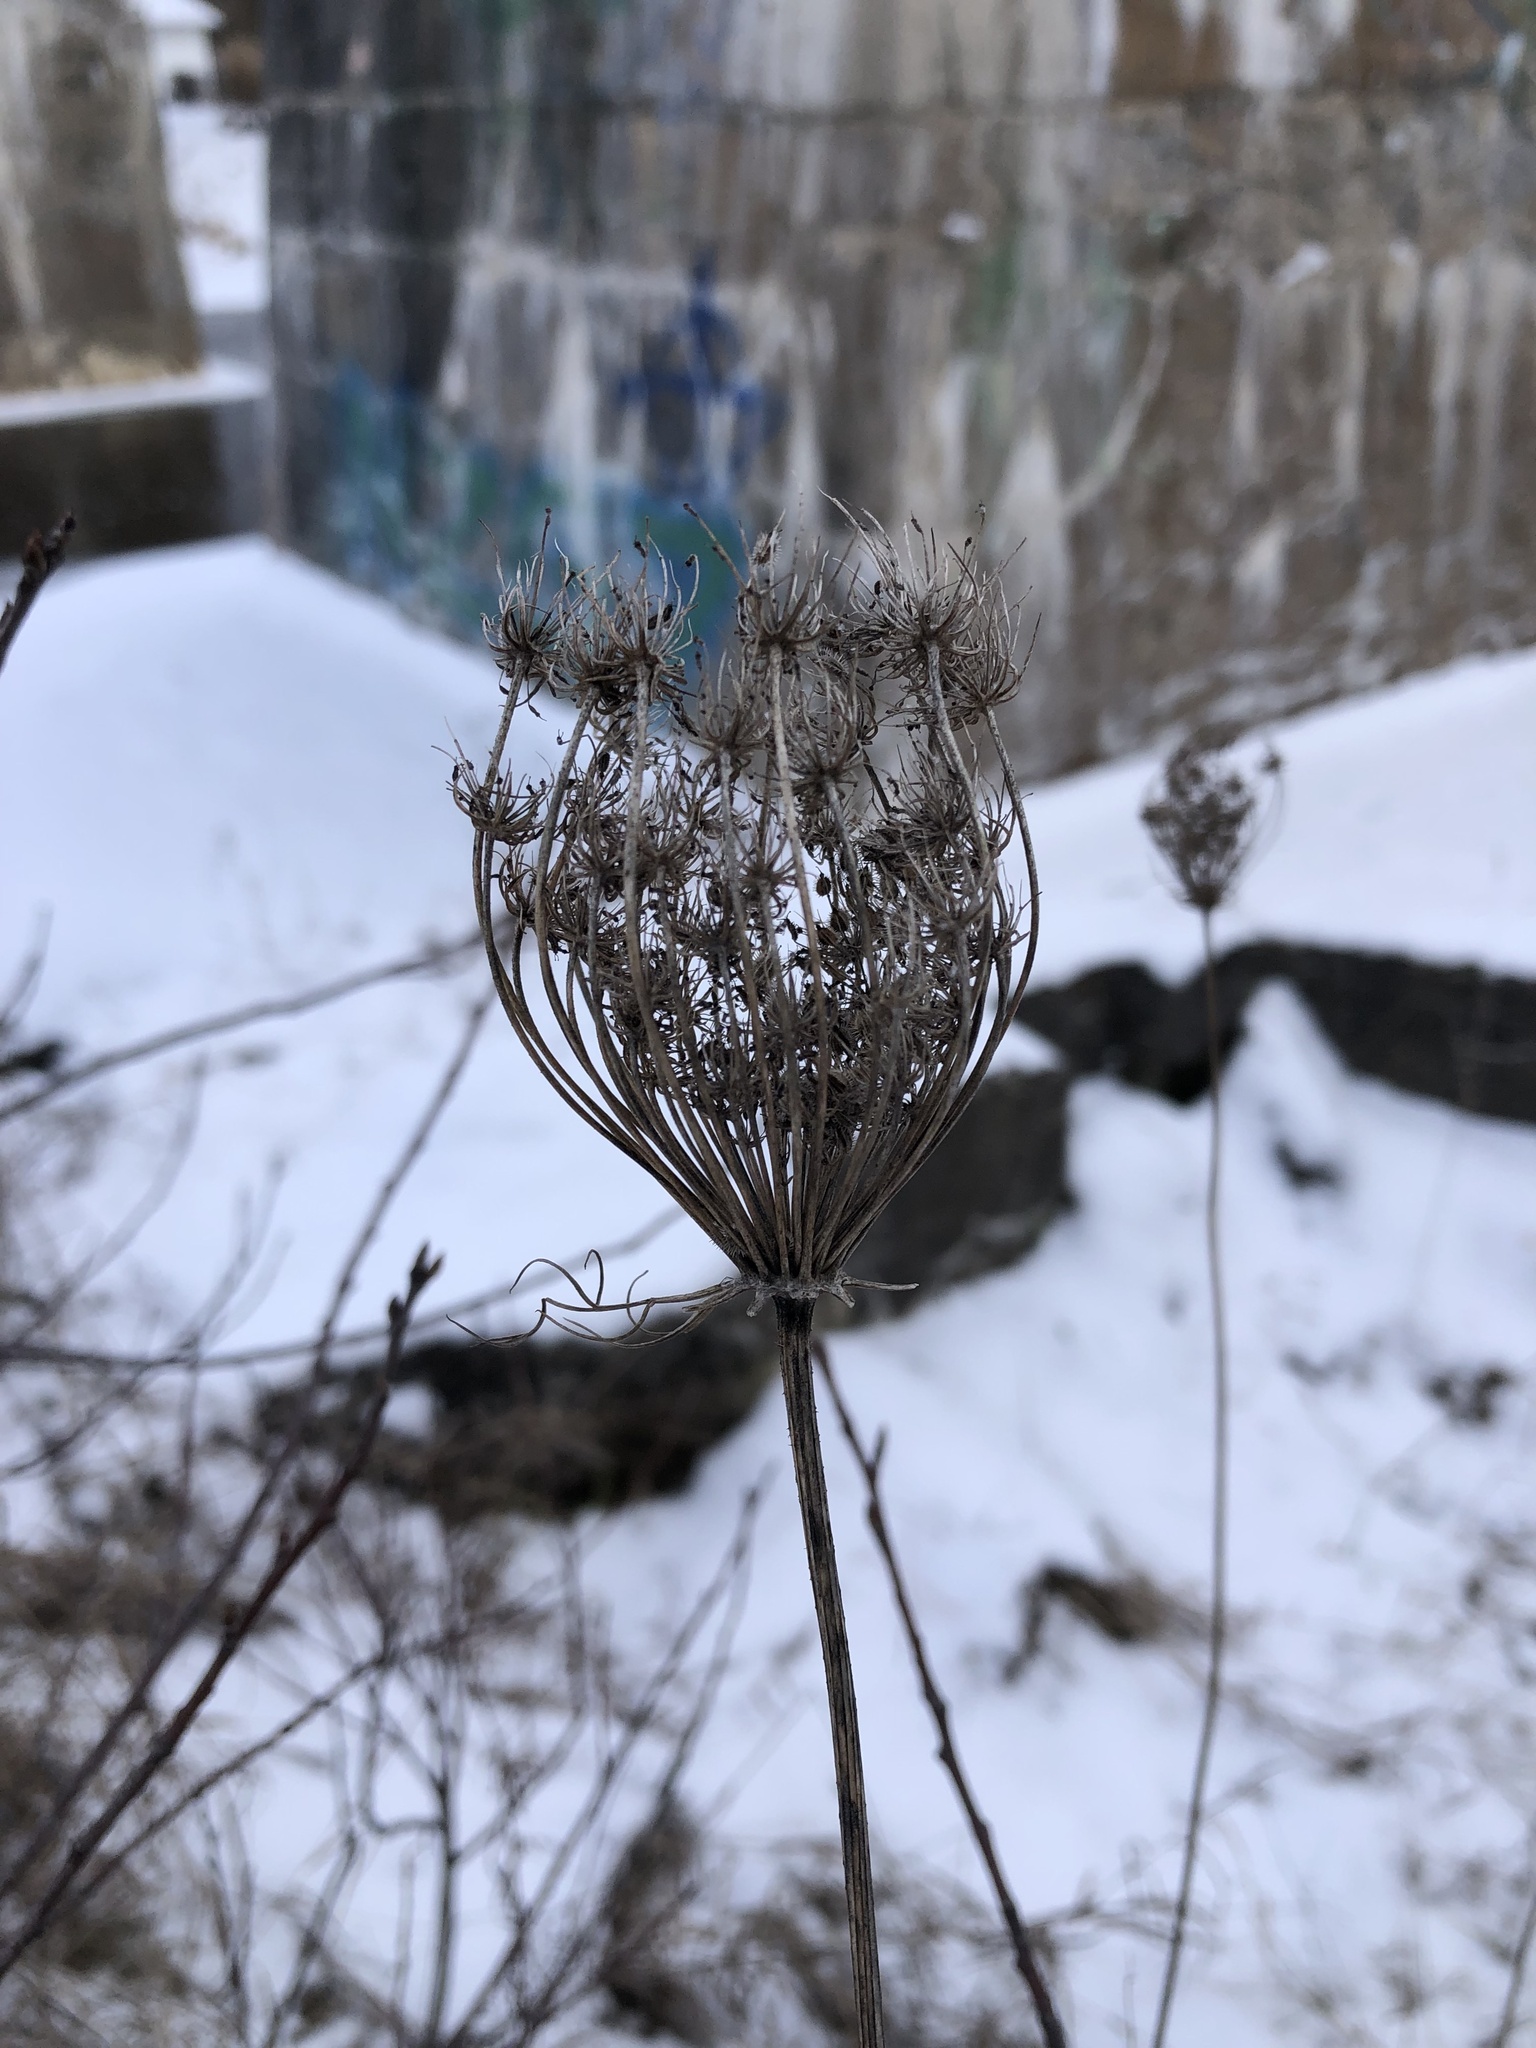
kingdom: Plantae
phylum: Tracheophyta
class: Magnoliopsida
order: Apiales
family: Apiaceae
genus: Daucus
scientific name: Daucus carota
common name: Wild carrot
